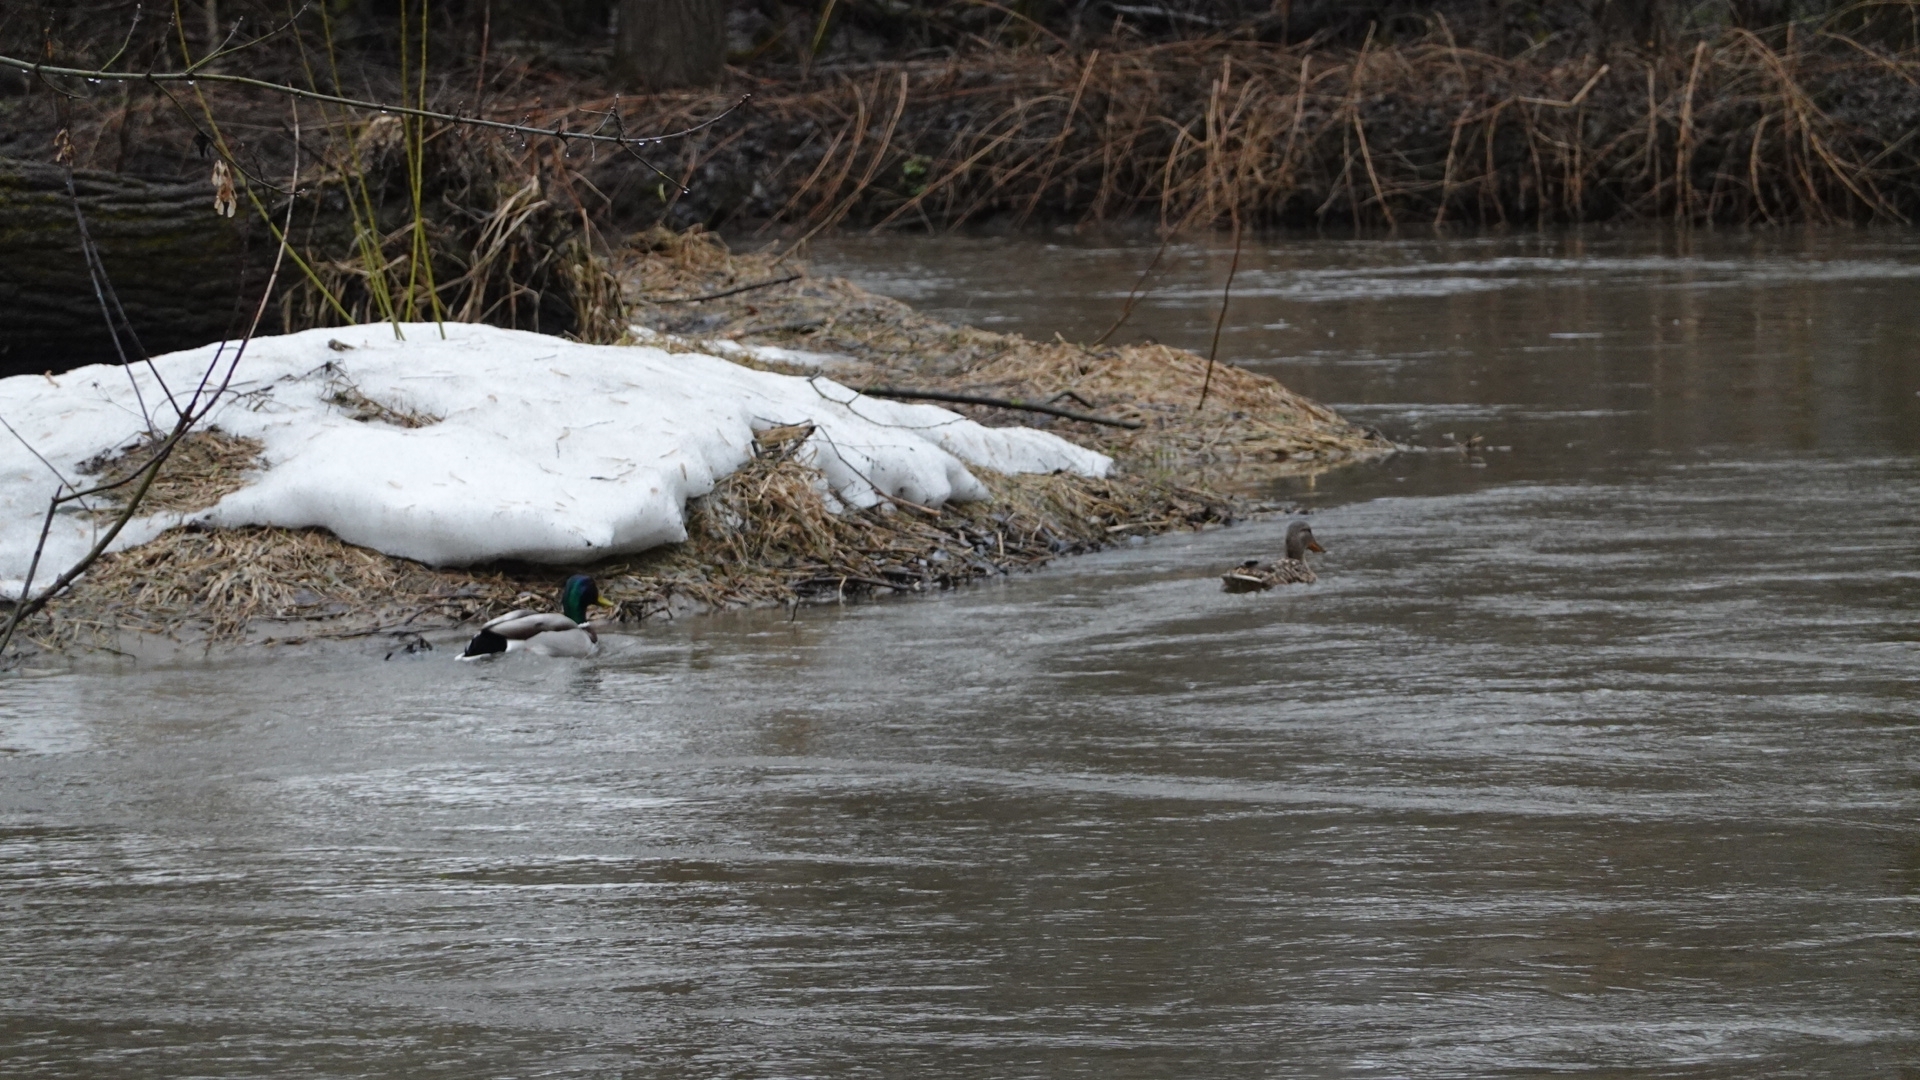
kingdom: Animalia
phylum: Chordata
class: Aves
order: Anseriformes
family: Anatidae
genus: Anas
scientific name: Anas platyrhynchos
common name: Mallard
